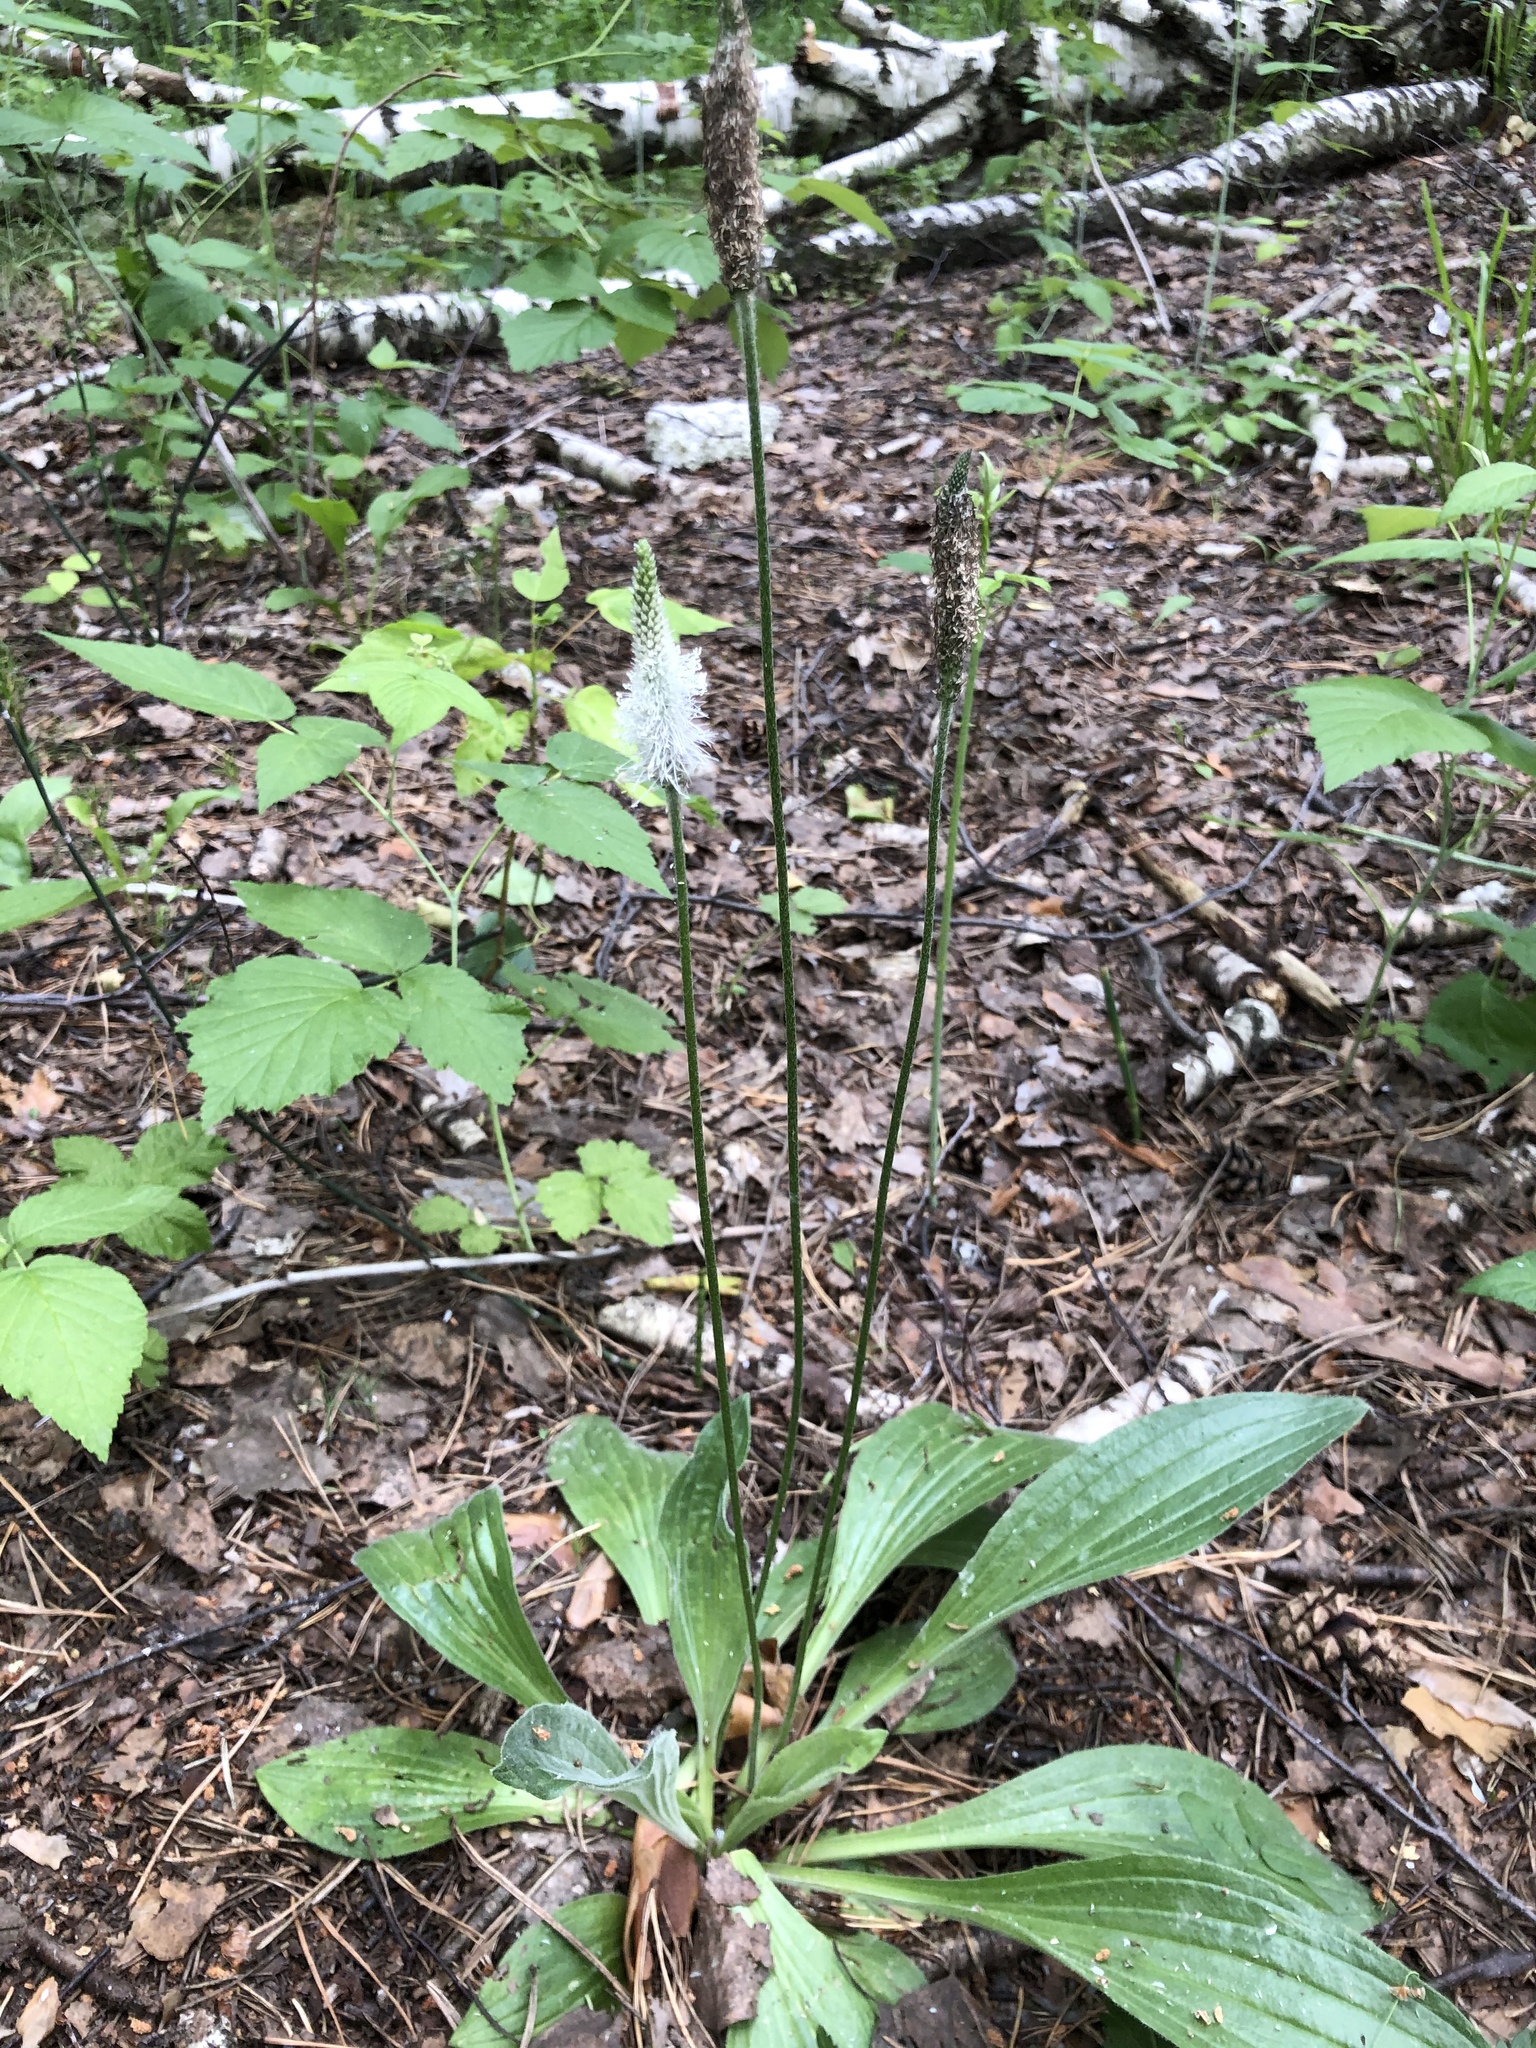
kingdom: Plantae
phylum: Tracheophyta
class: Magnoliopsida
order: Lamiales
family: Plantaginaceae
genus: Plantago
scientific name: Plantago urvillei
